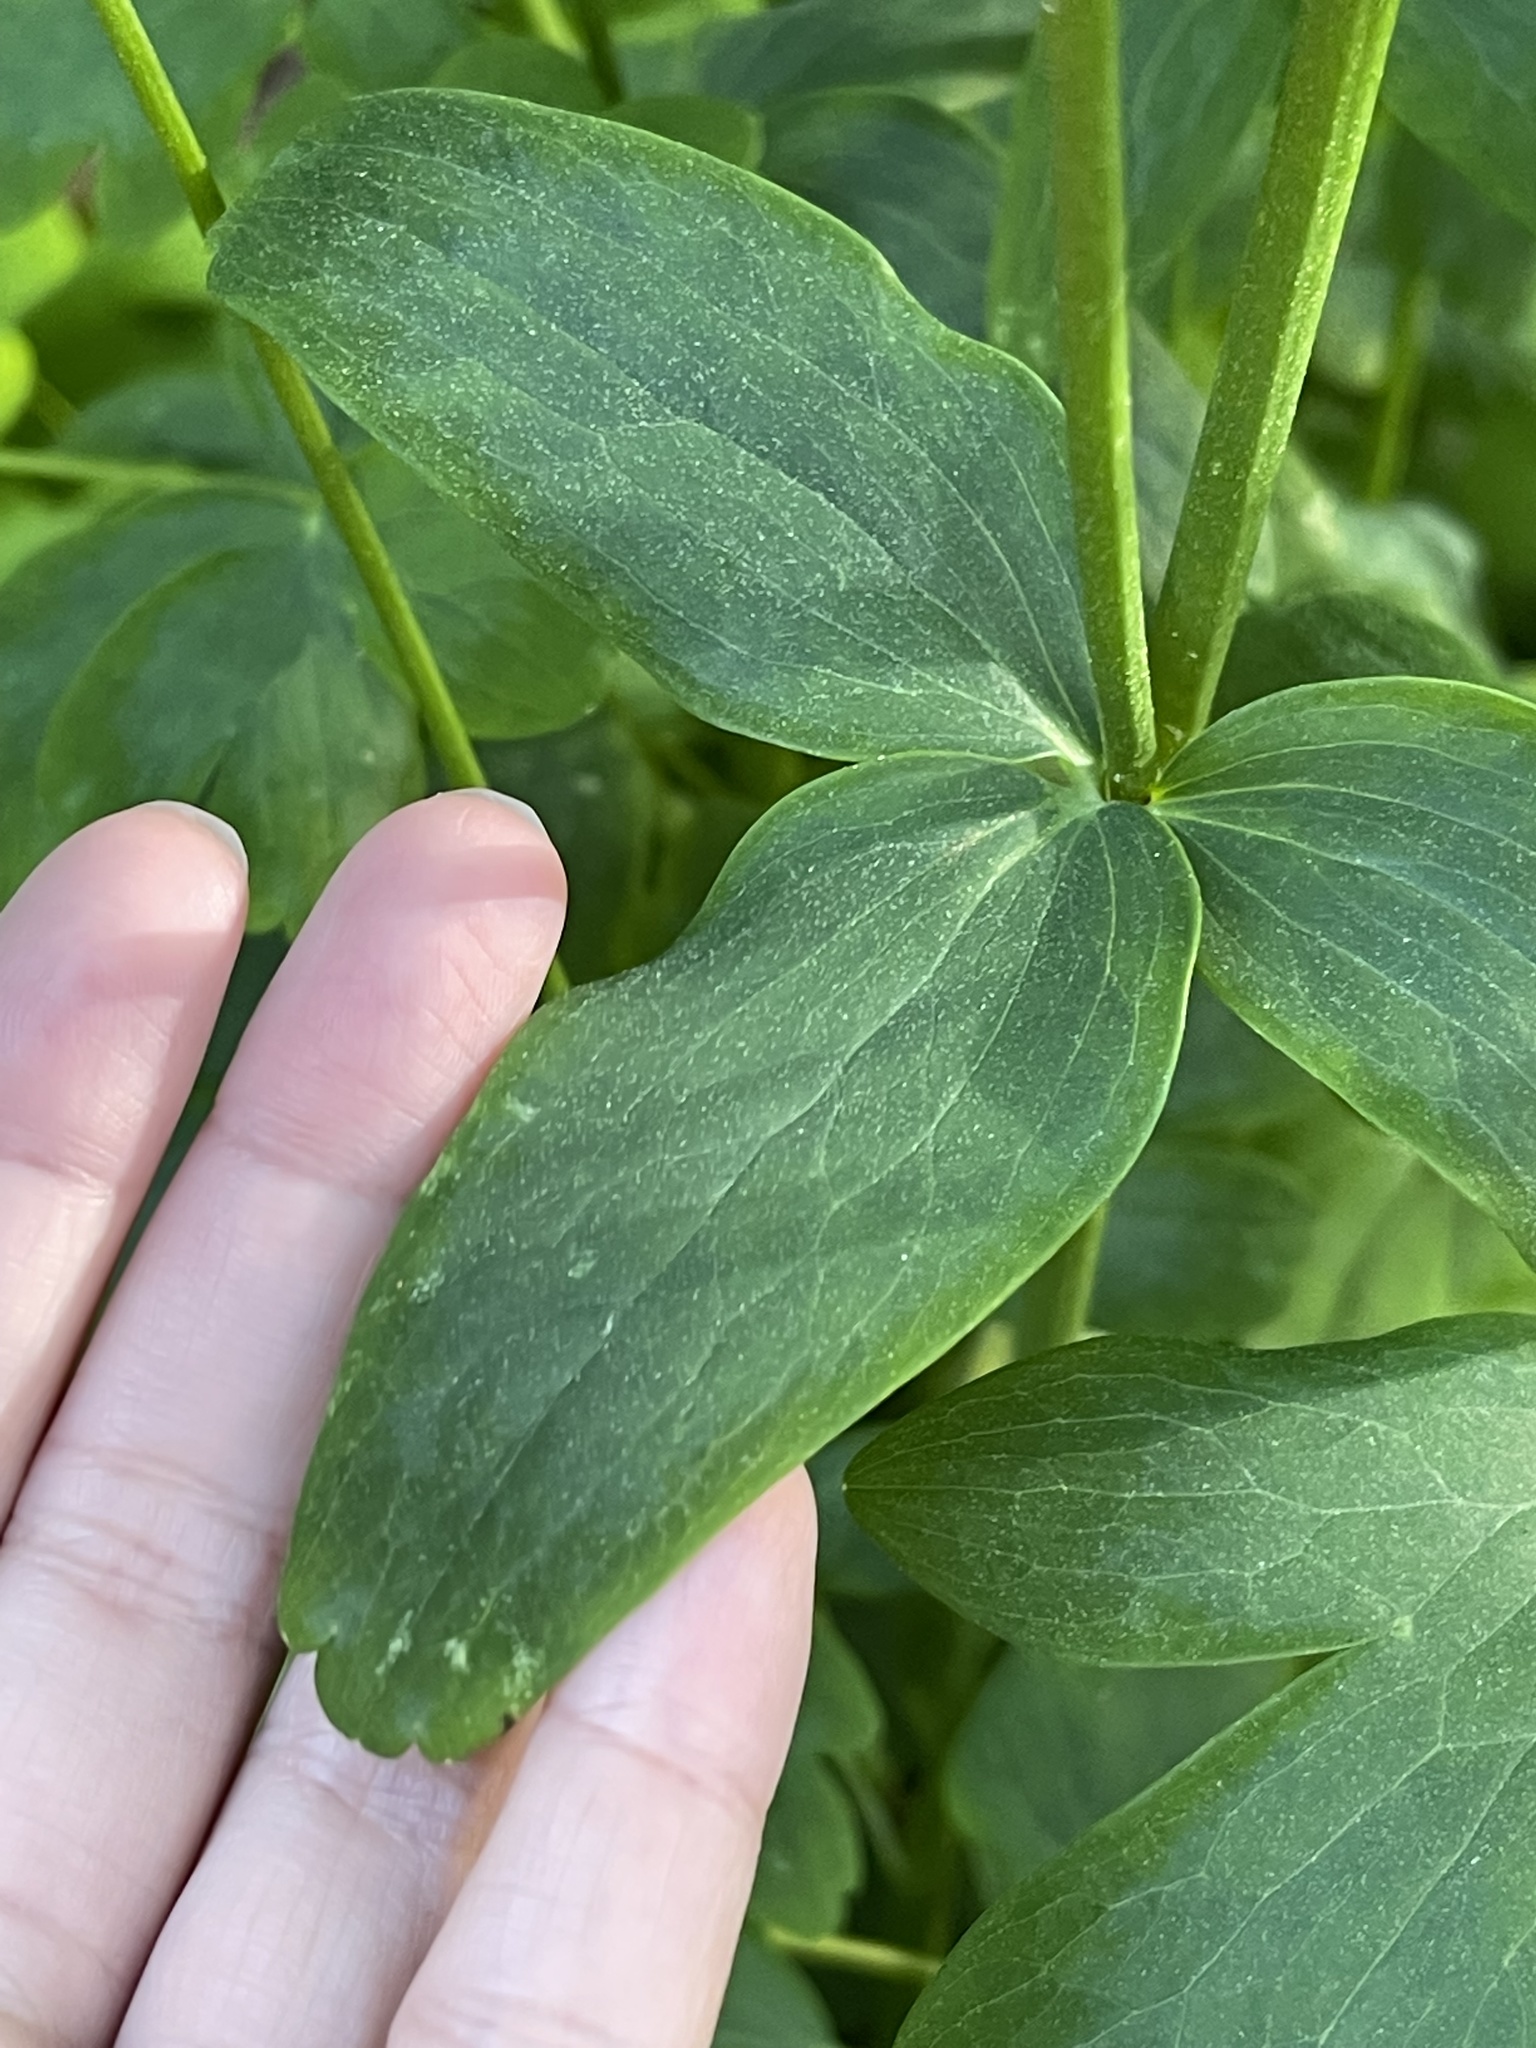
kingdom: Plantae
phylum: Tracheophyta
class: Magnoliopsida
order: Ranunculales
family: Ranunculaceae
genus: Aquilegia
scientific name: Aquilegia vulgaris
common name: Columbine
